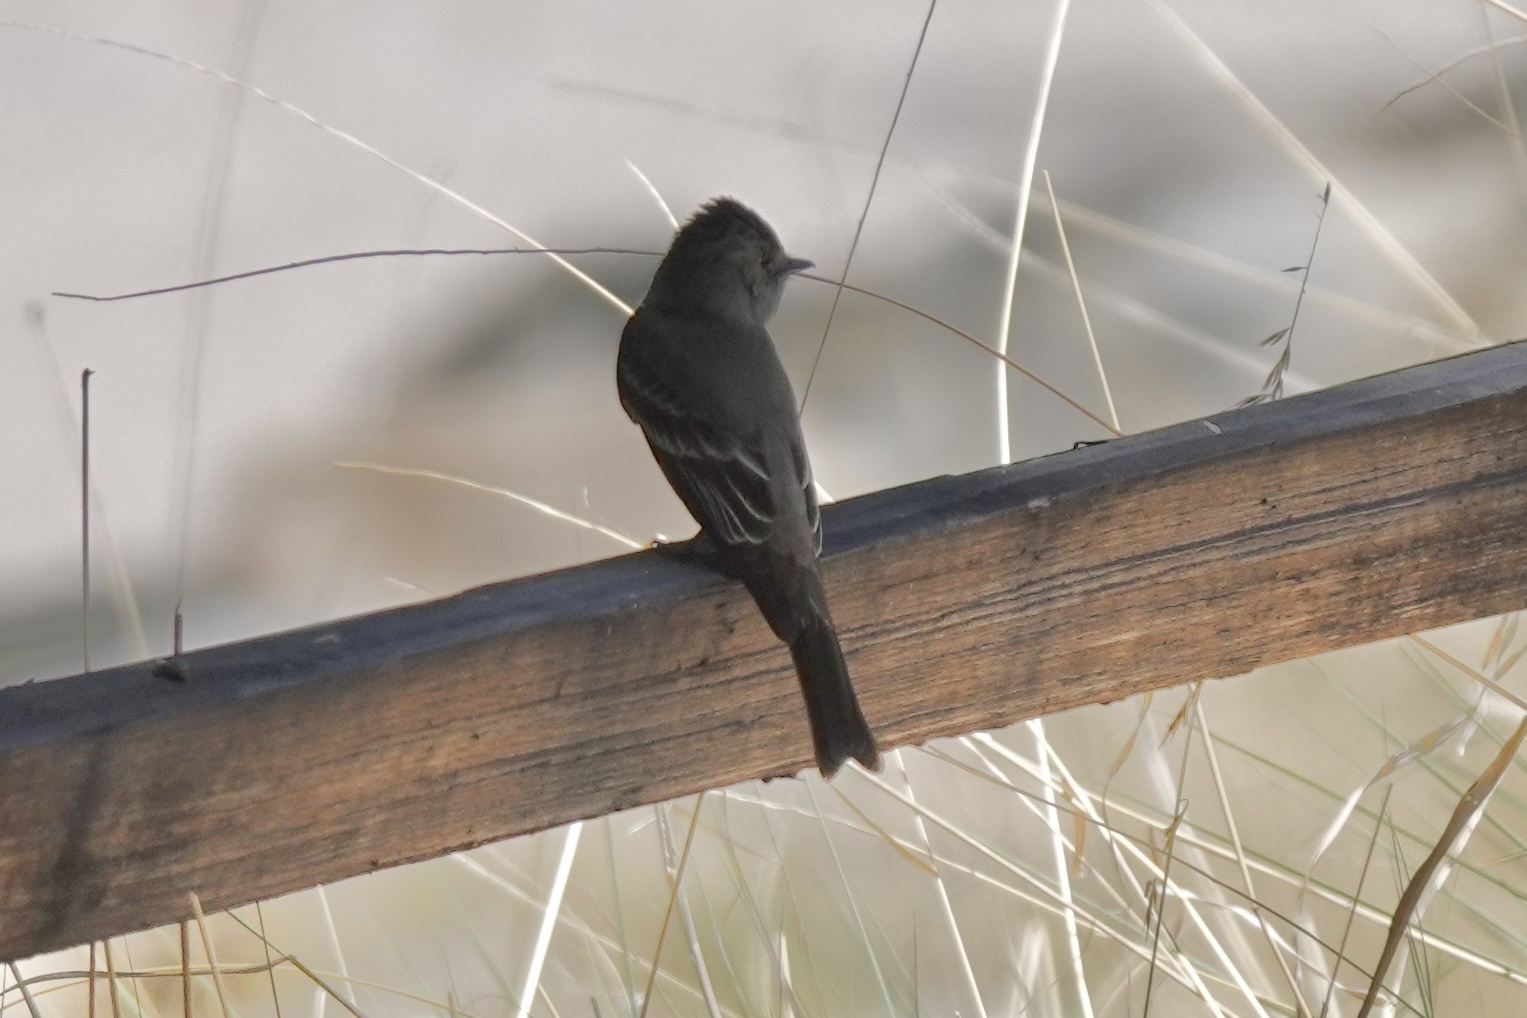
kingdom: Animalia
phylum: Chordata
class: Aves
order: Passeriformes
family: Tyrannidae
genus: Contopus
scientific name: Contopus sordidulus
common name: Western wood-pewee
